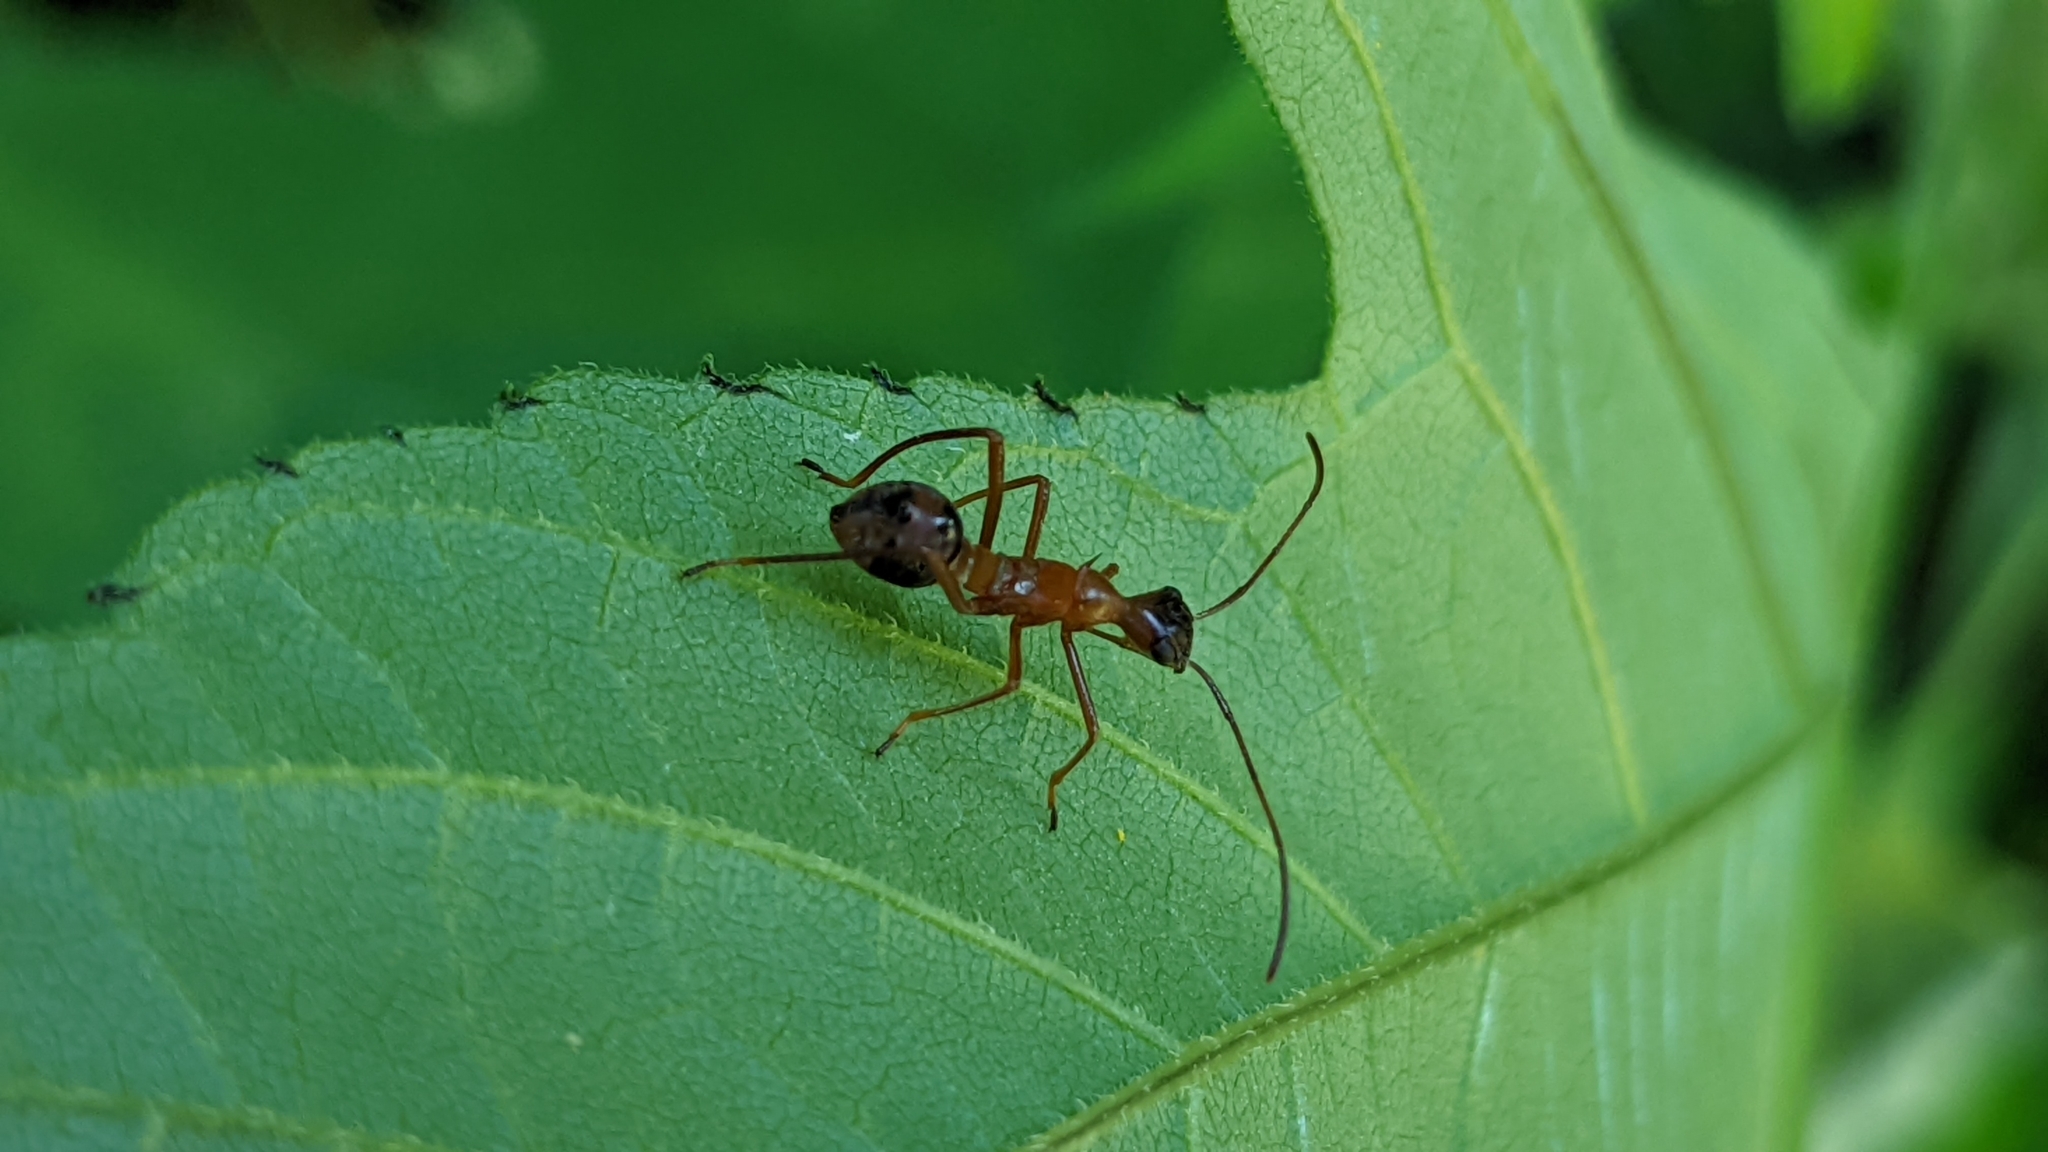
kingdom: Animalia
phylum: Arthropoda
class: Insecta
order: Hemiptera
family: Alydidae
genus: Hyalymenus
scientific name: Hyalymenus tarsatus
